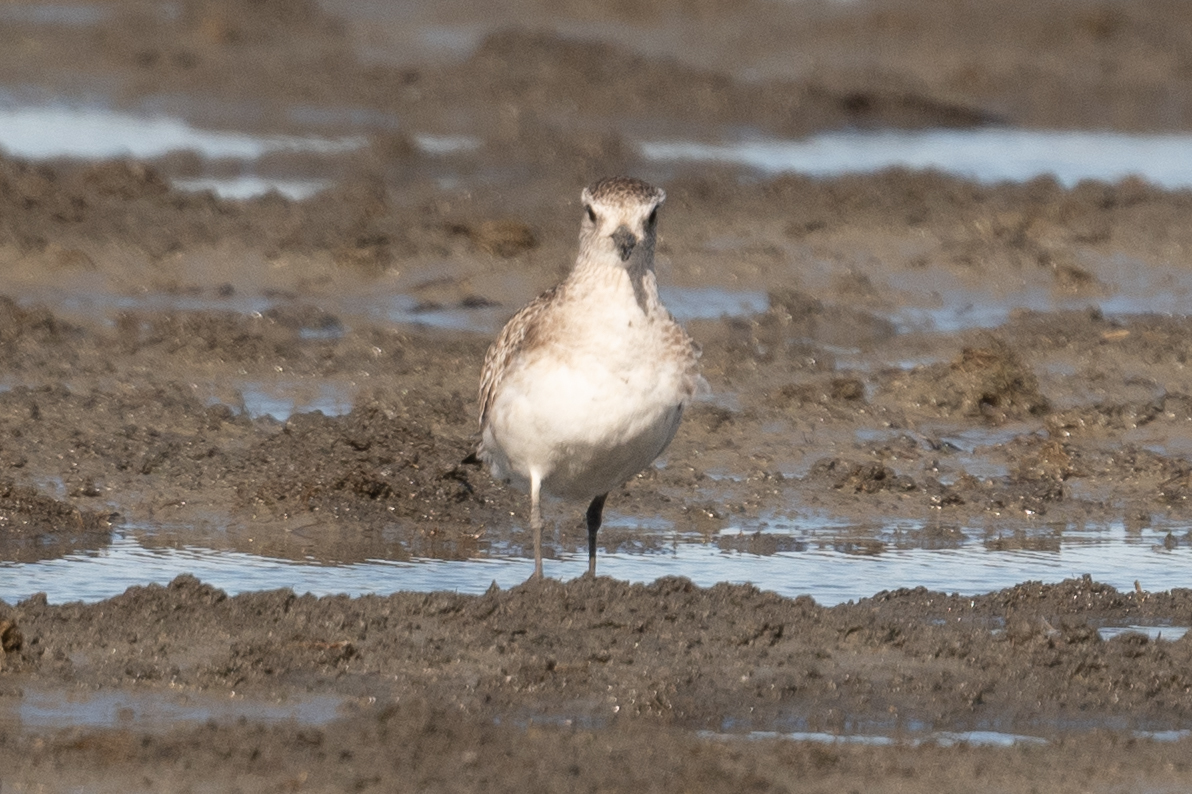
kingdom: Animalia
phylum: Chordata
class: Aves
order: Charadriiformes
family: Charadriidae
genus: Pluvialis
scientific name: Pluvialis squatarola
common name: Grey plover
